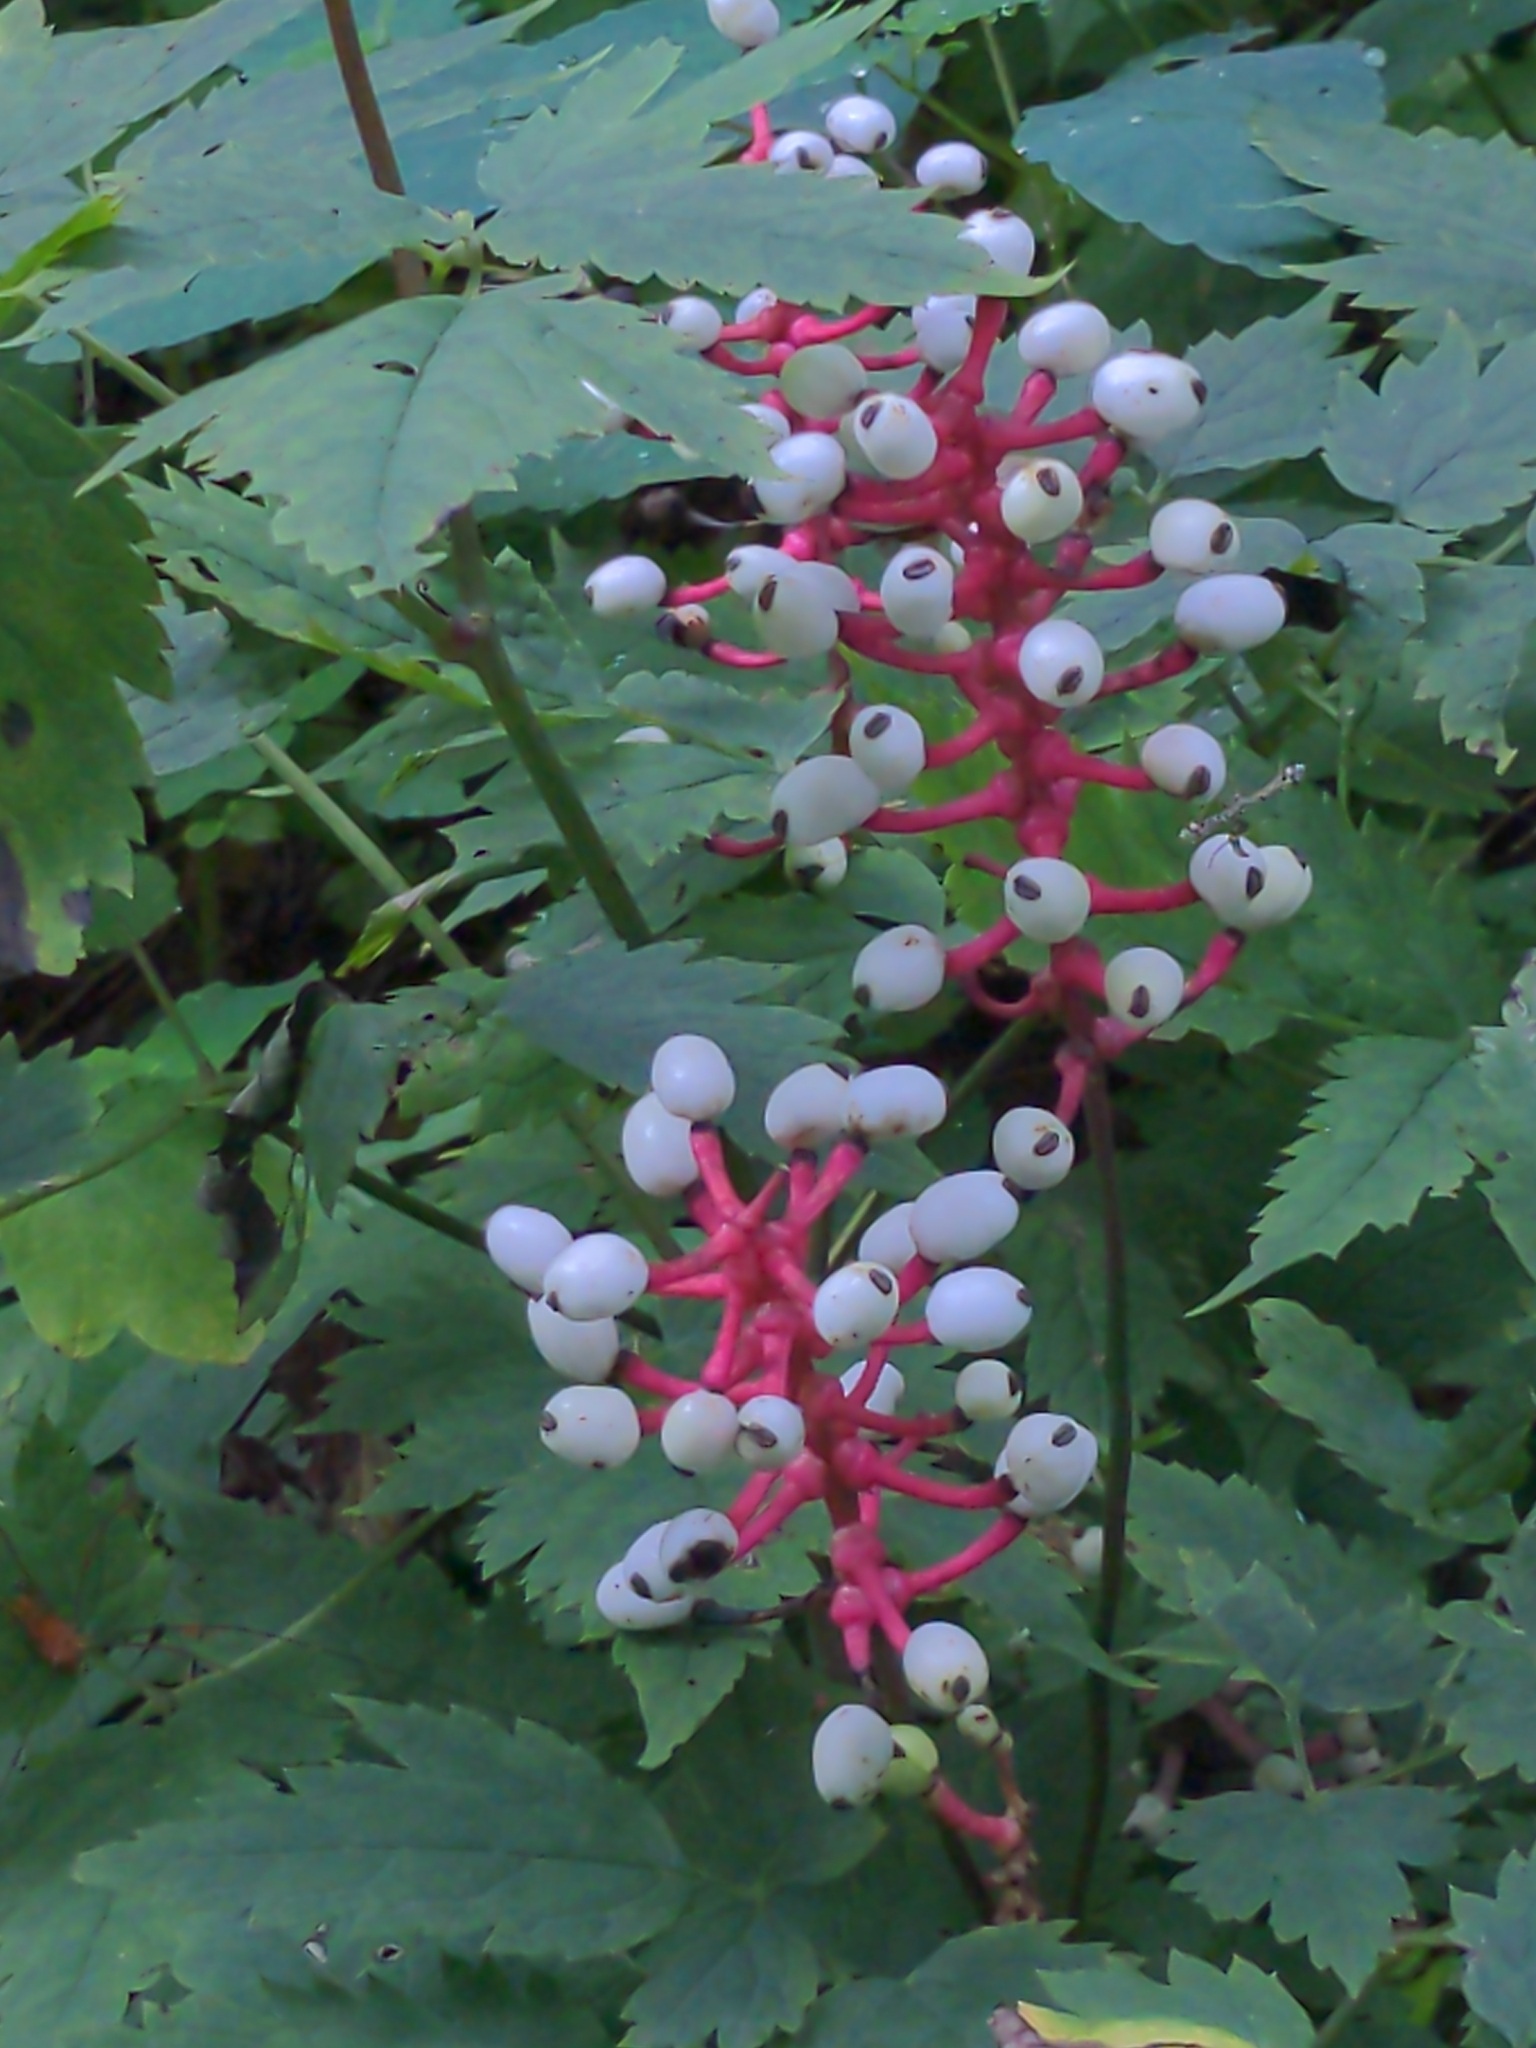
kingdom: Plantae
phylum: Tracheophyta
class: Magnoliopsida
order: Ranunculales
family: Ranunculaceae
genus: Actaea
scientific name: Actaea pachypoda
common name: Doll's-eyes
